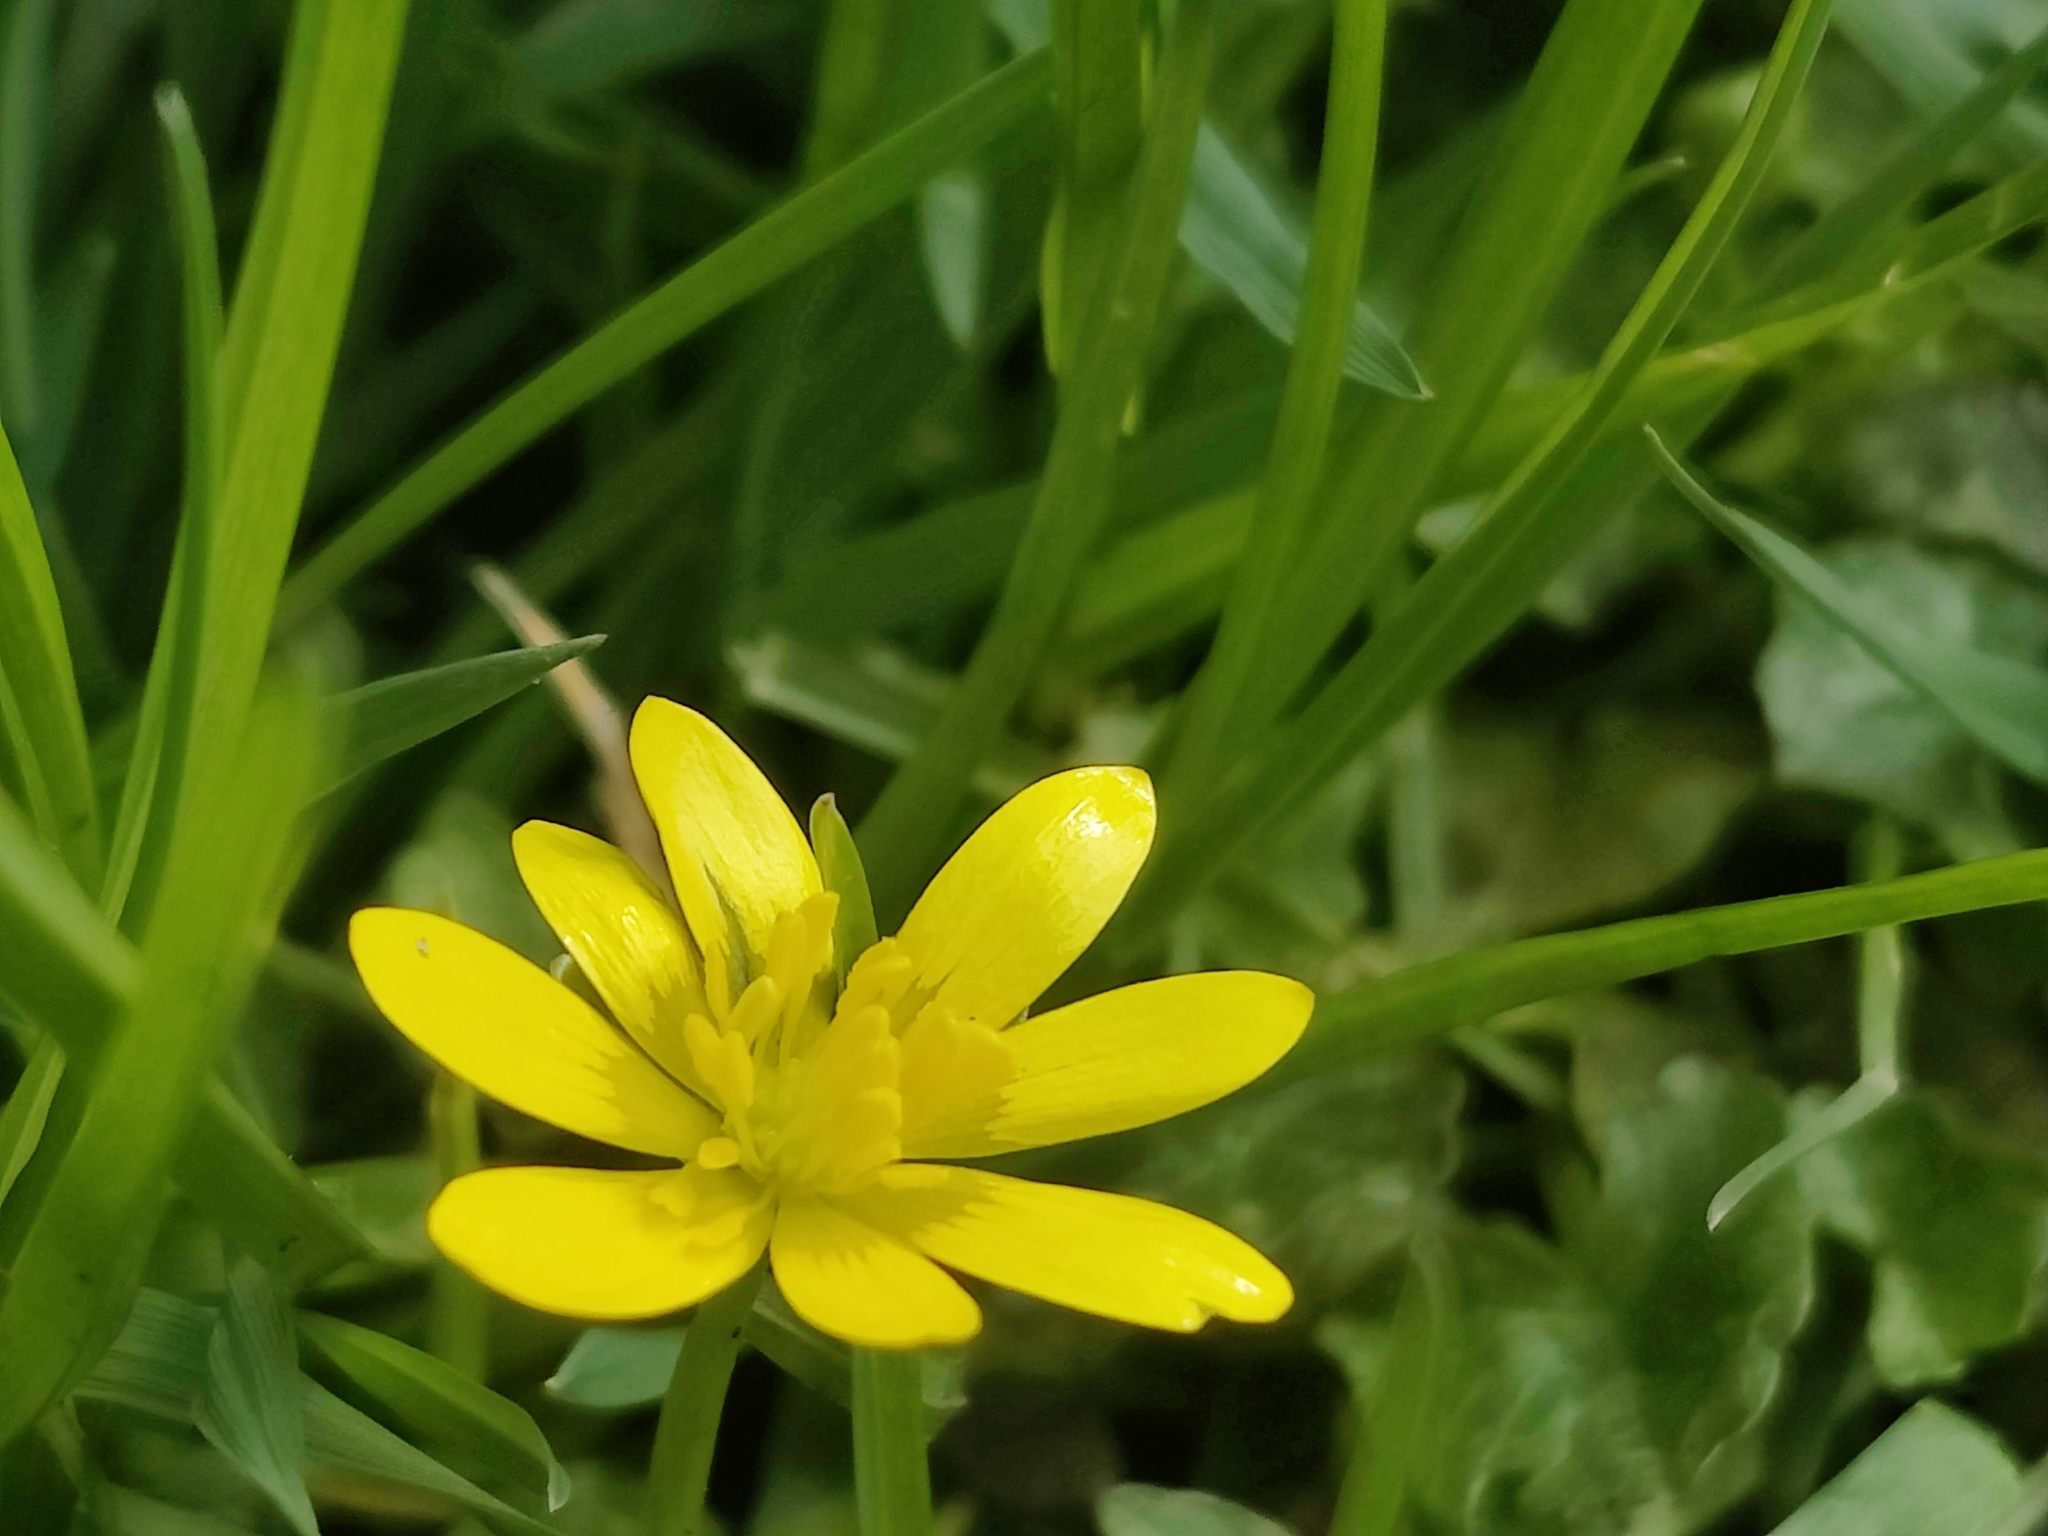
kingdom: Plantae
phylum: Tracheophyta
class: Magnoliopsida
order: Ranunculales
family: Ranunculaceae
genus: Ficaria
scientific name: Ficaria verna
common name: Lesser celandine
